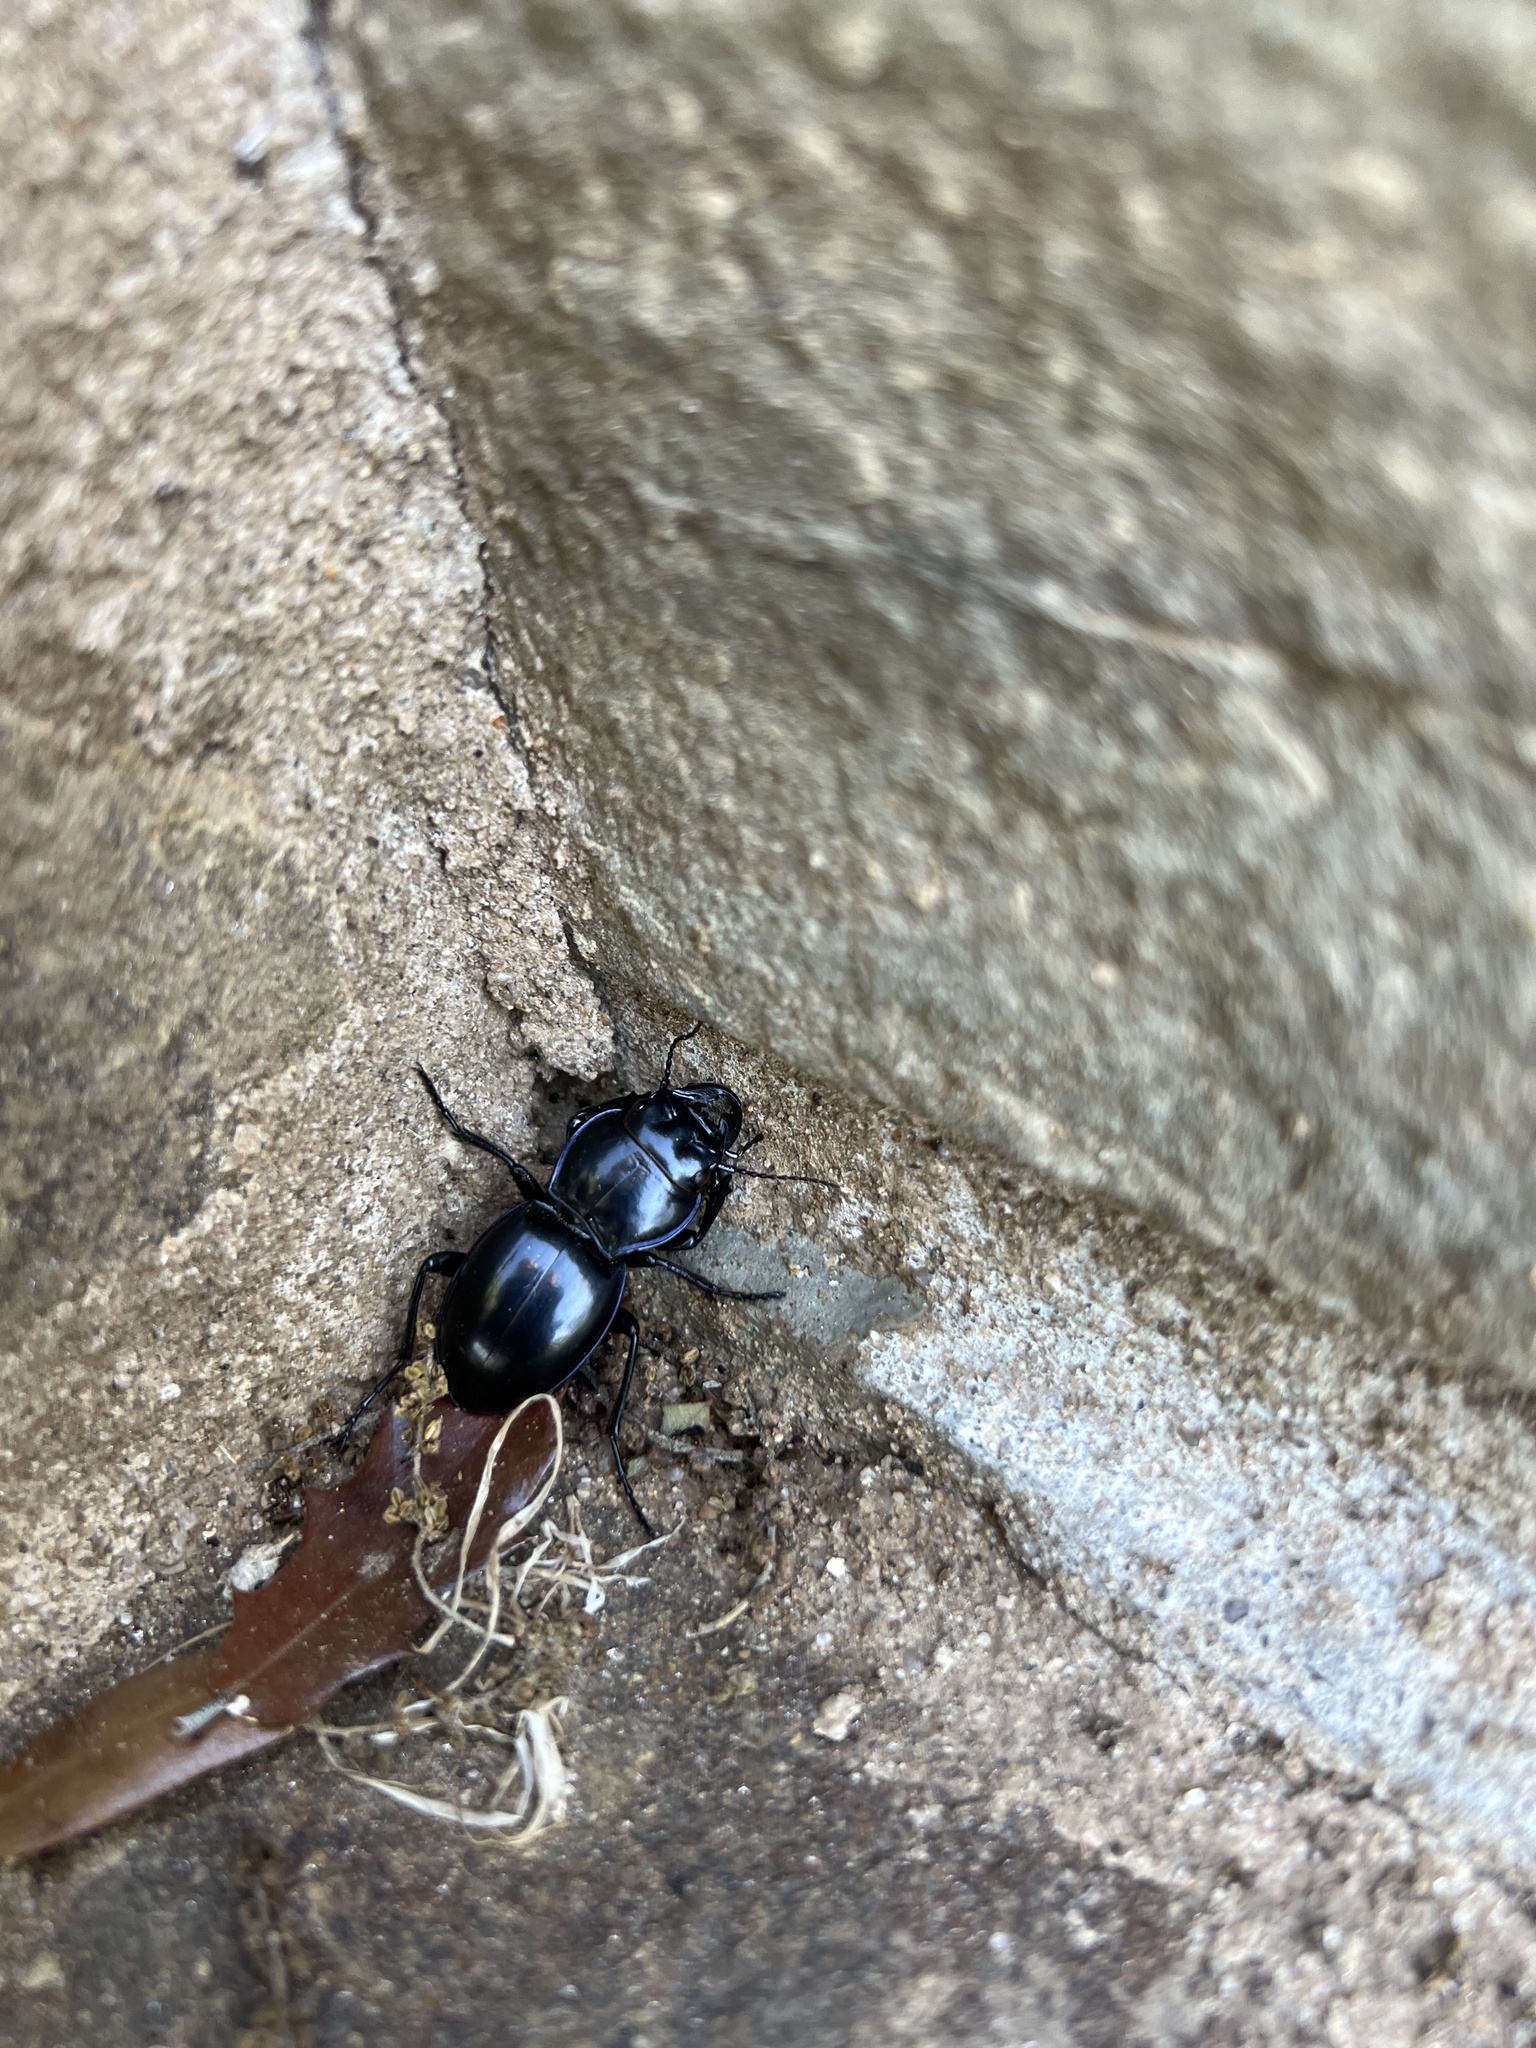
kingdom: Animalia
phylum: Arthropoda
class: Insecta
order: Coleoptera
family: Carabidae
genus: Pasimachus
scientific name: Pasimachus elongatus
